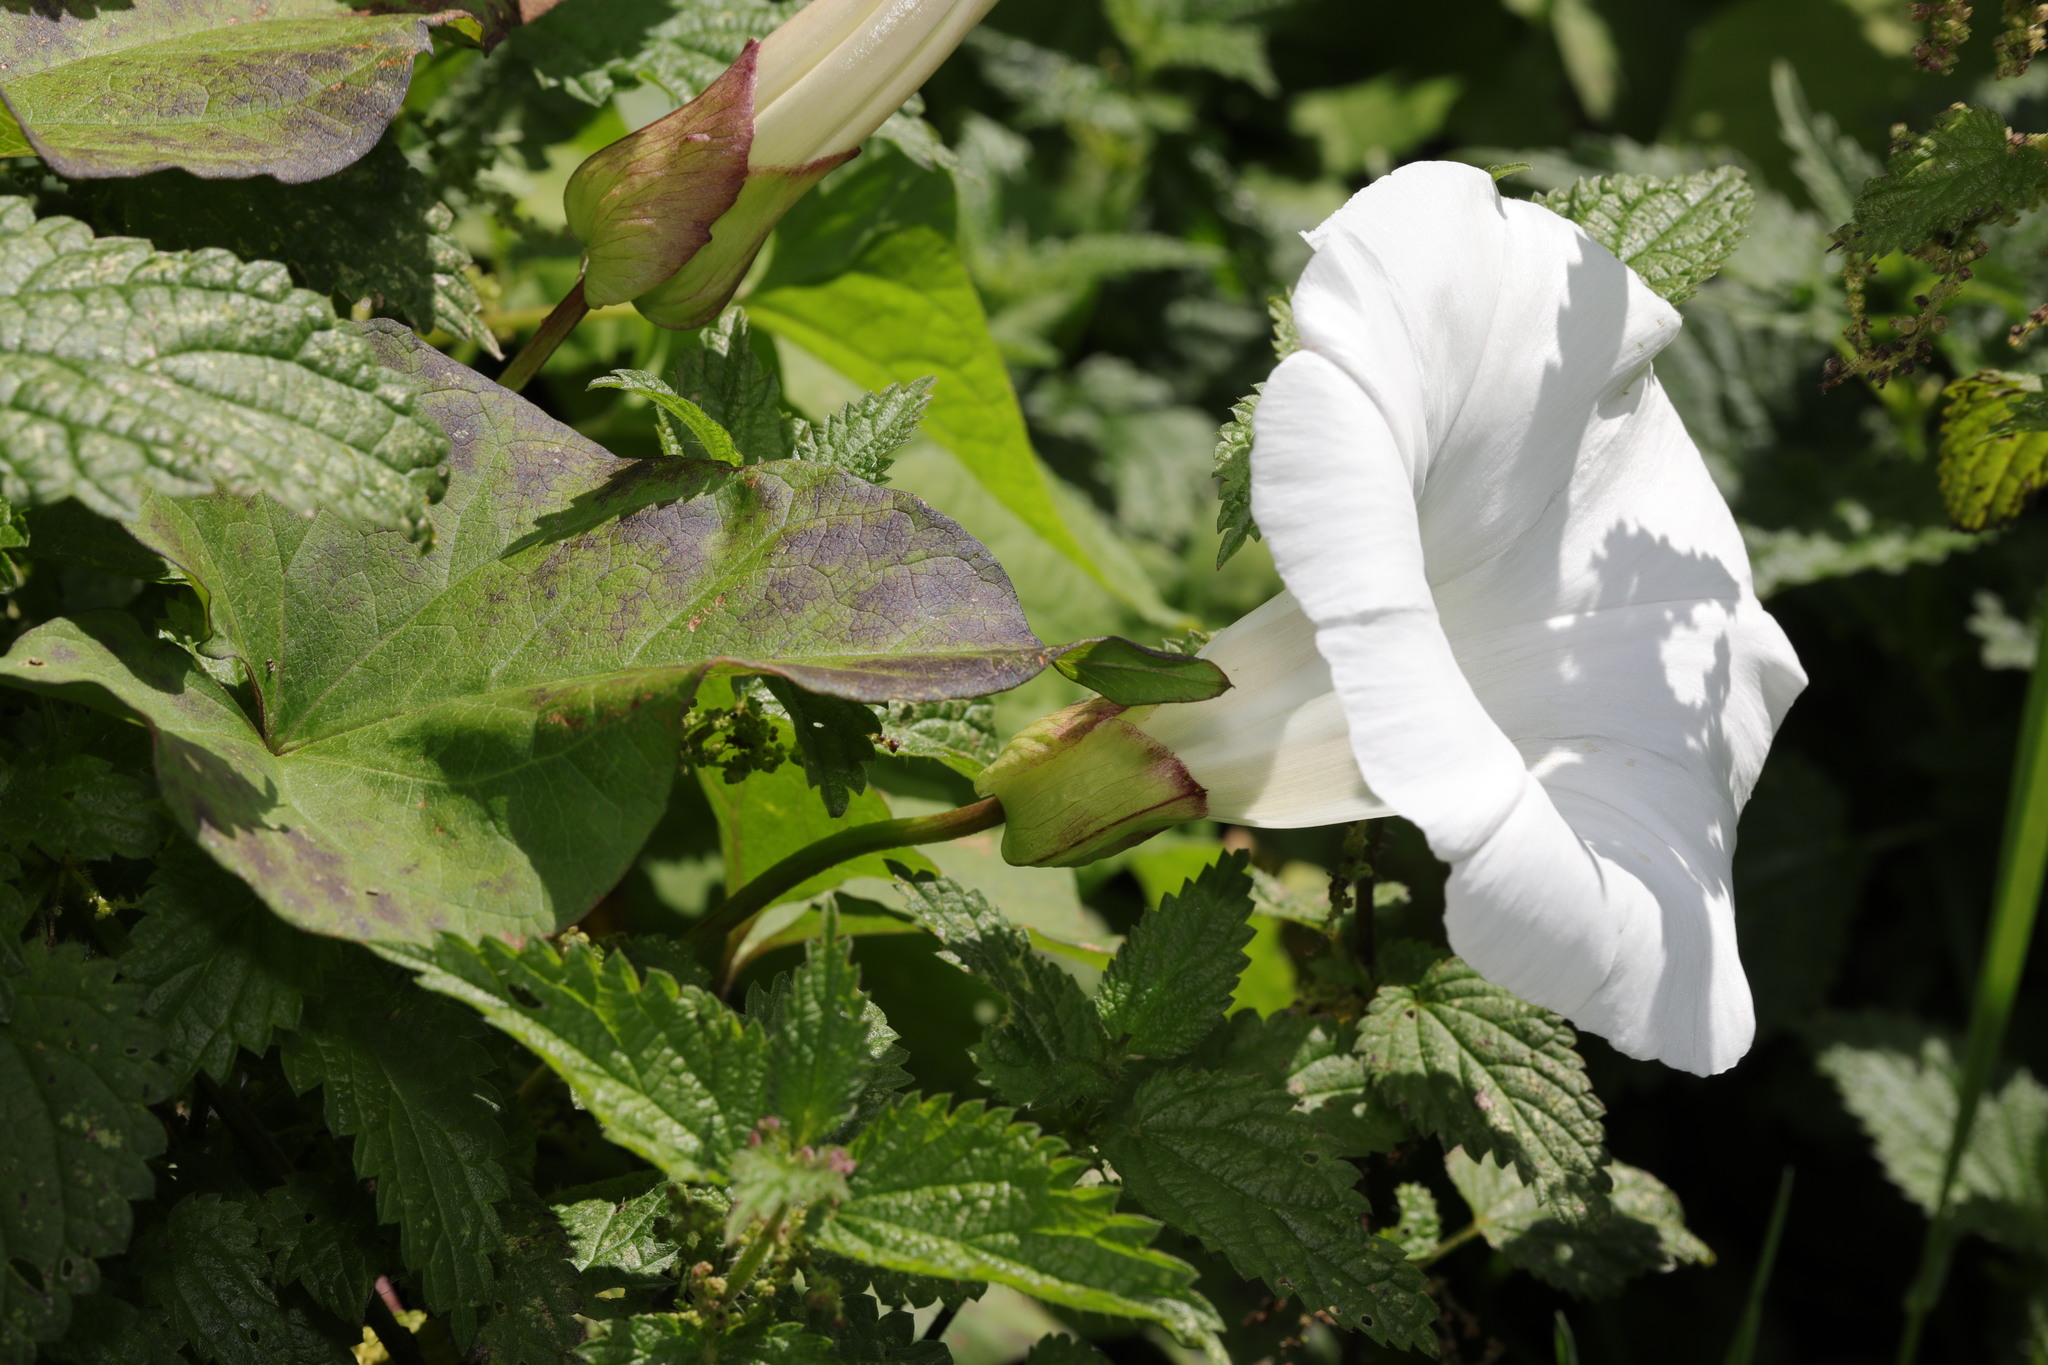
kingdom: Plantae
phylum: Tracheophyta
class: Magnoliopsida
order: Solanales
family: Convolvulaceae
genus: Calystegia
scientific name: Calystegia silvatica
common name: Large bindweed
